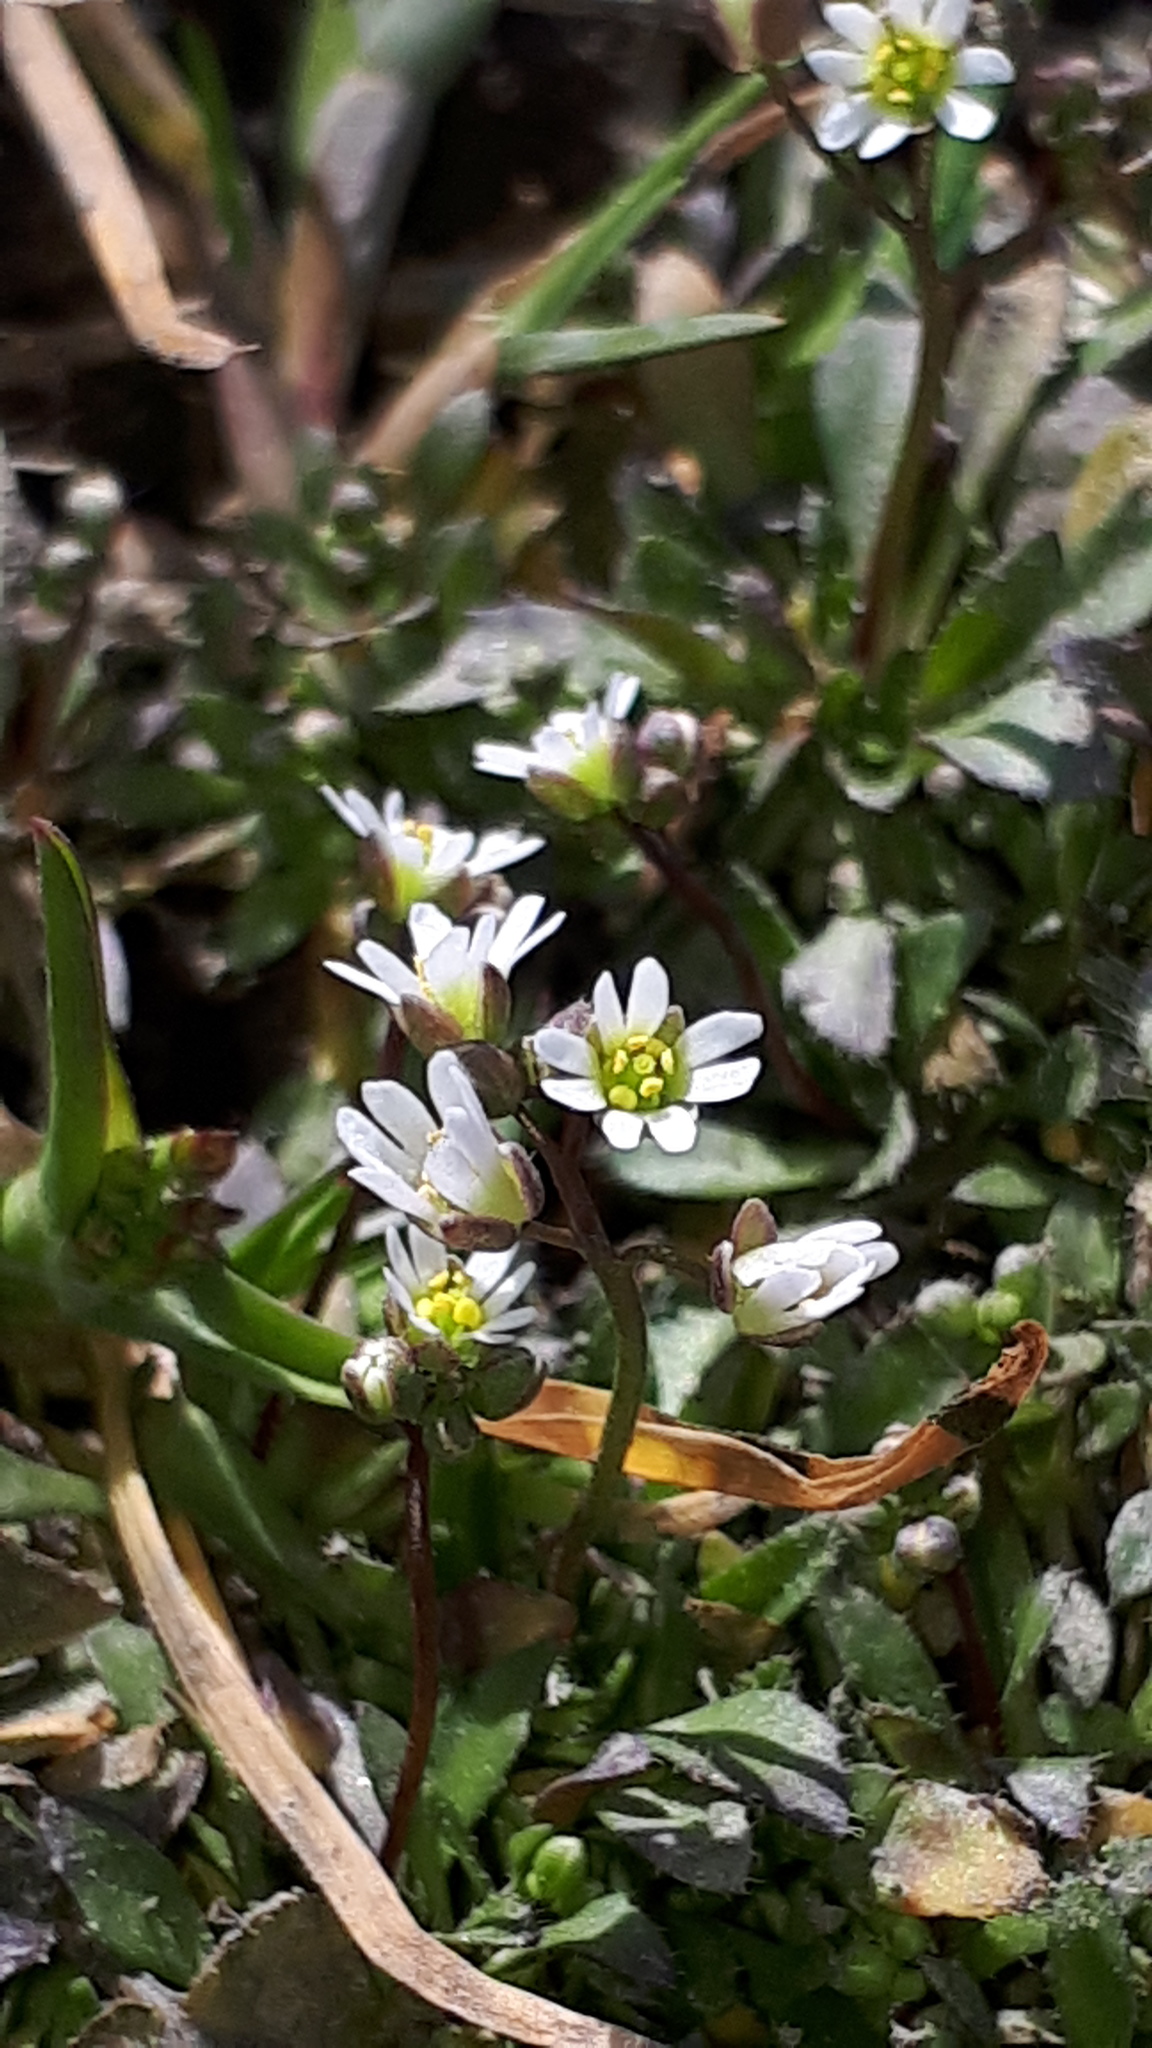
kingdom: Plantae
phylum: Tracheophyta
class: Magnoliopsida
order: Brassicales
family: Brassicaceae
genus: Draba
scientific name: Draba verna
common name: Spring draba
